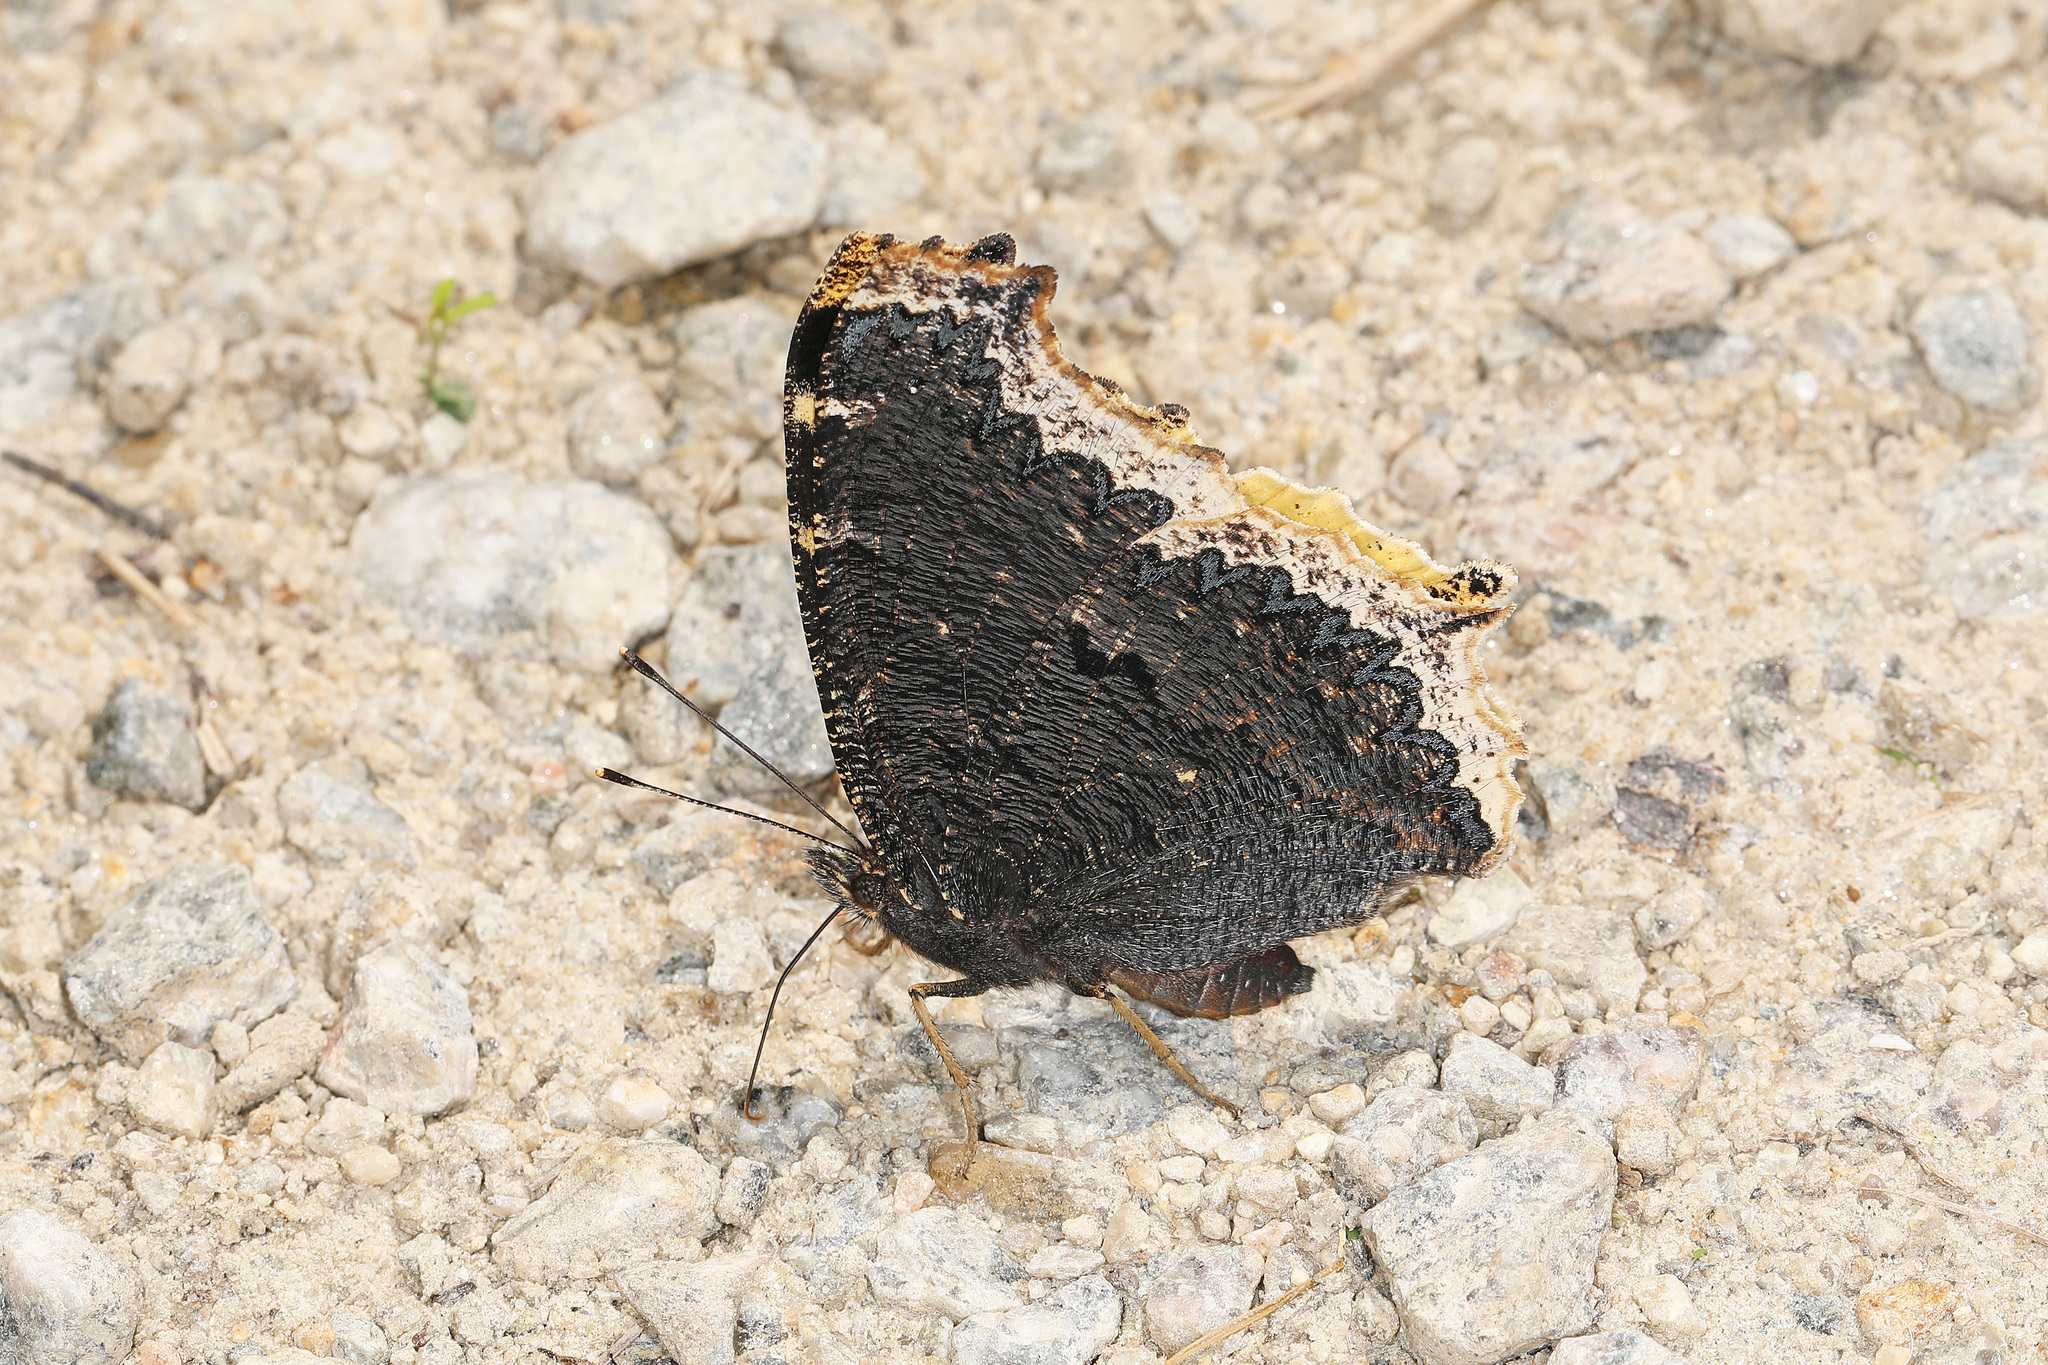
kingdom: Animalia
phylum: Arthropoda
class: Insecta
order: Lepidoptera
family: Nymphalidae
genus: Nymphalis
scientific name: Nymphalis antiopa
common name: Camberwell beauty
